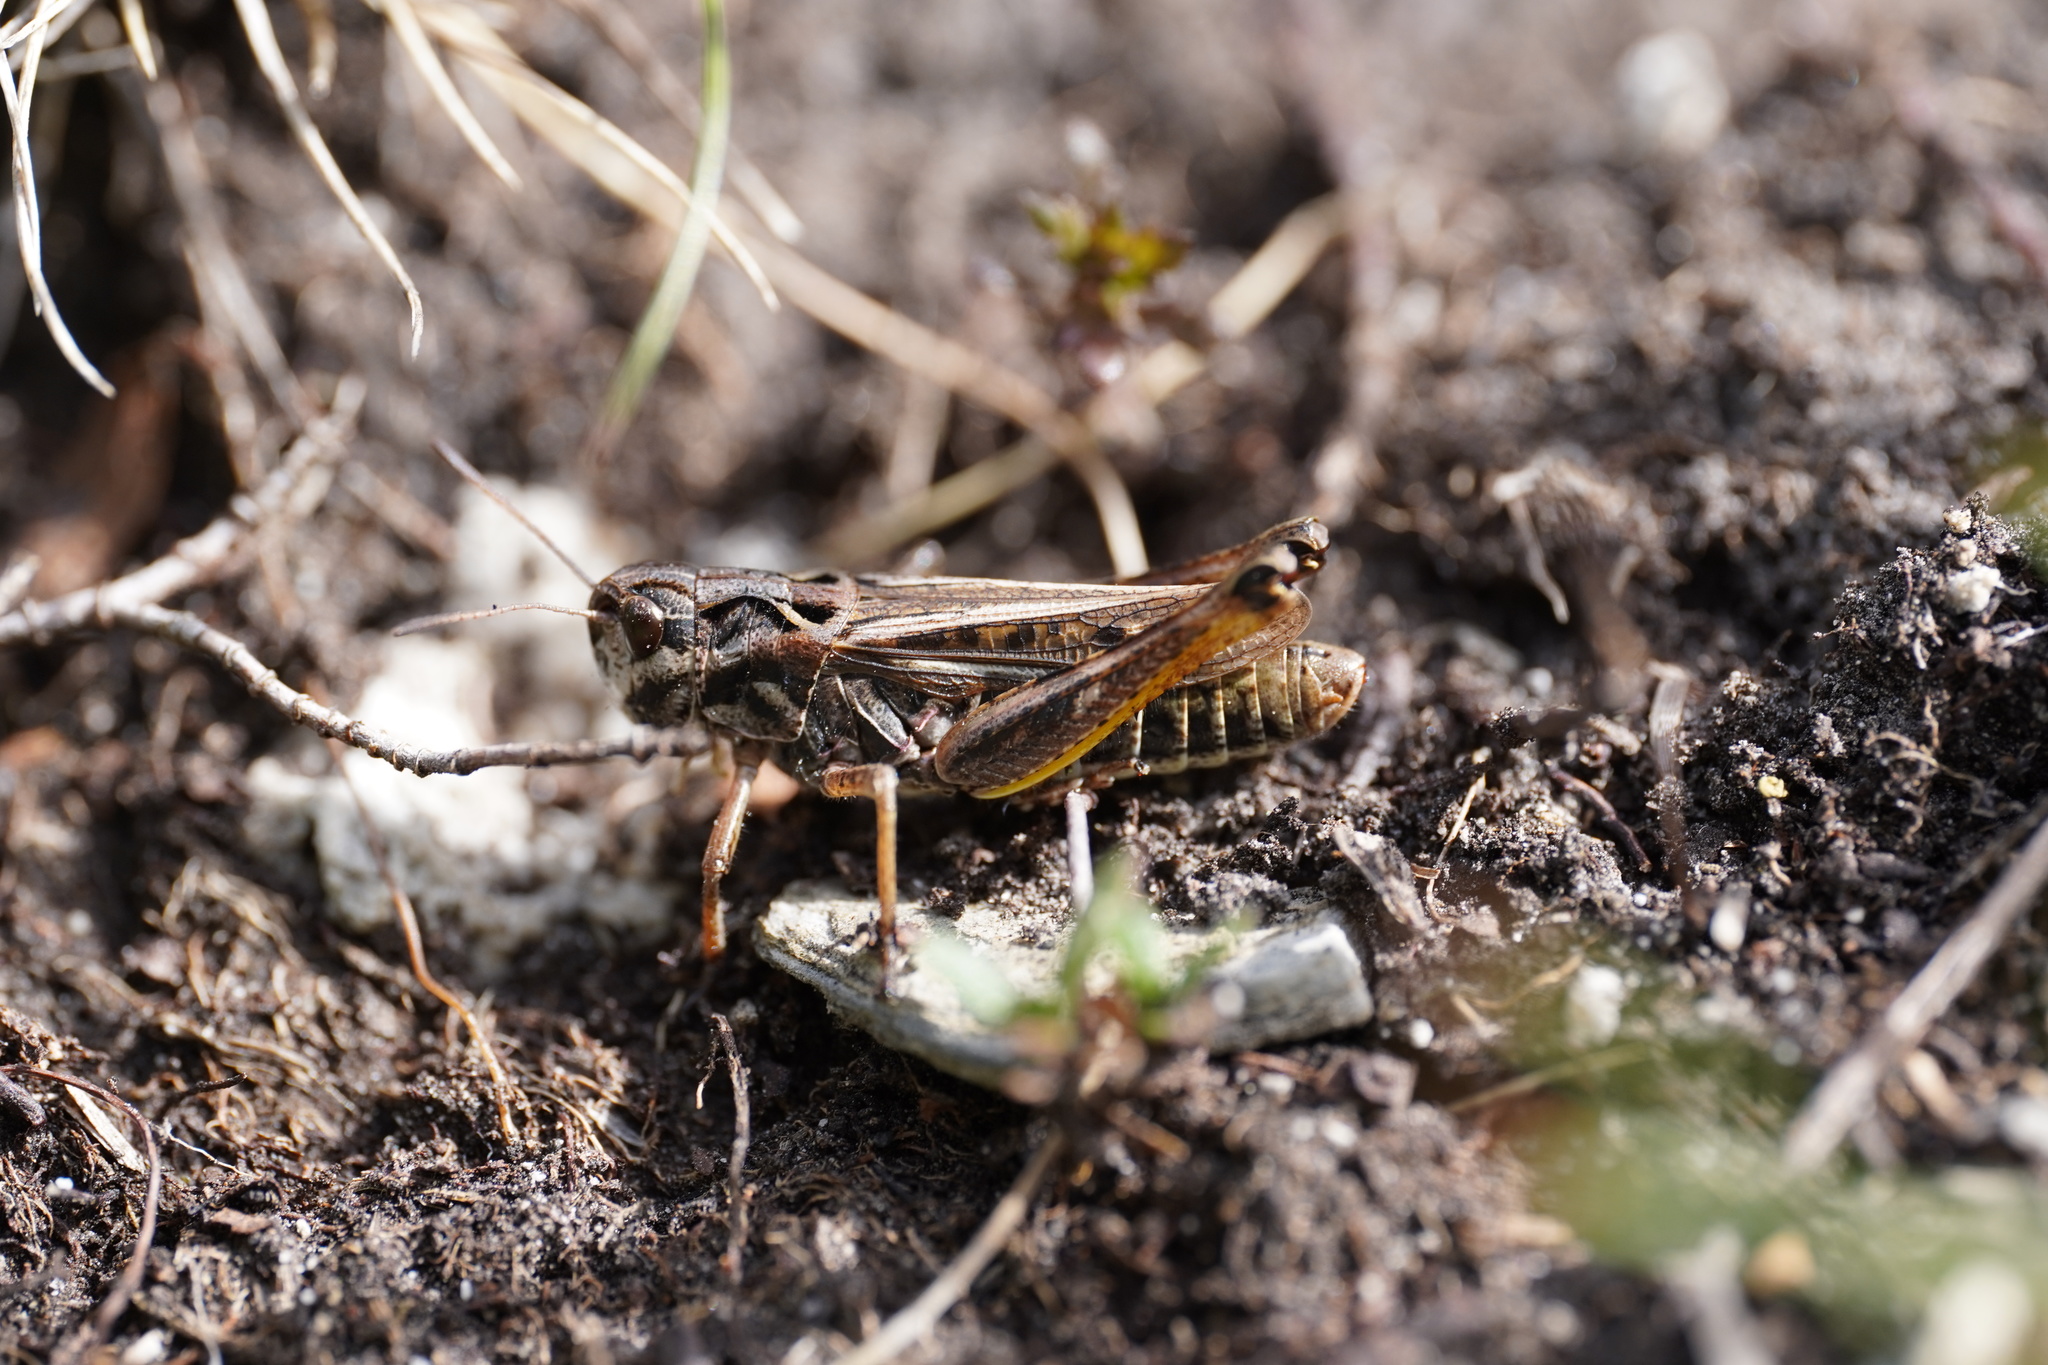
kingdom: Animalia
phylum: Arthropoda
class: Insecta
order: Orthoptera
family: Acrididae
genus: Gomphocerus
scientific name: Gomphocerus sibiricus
